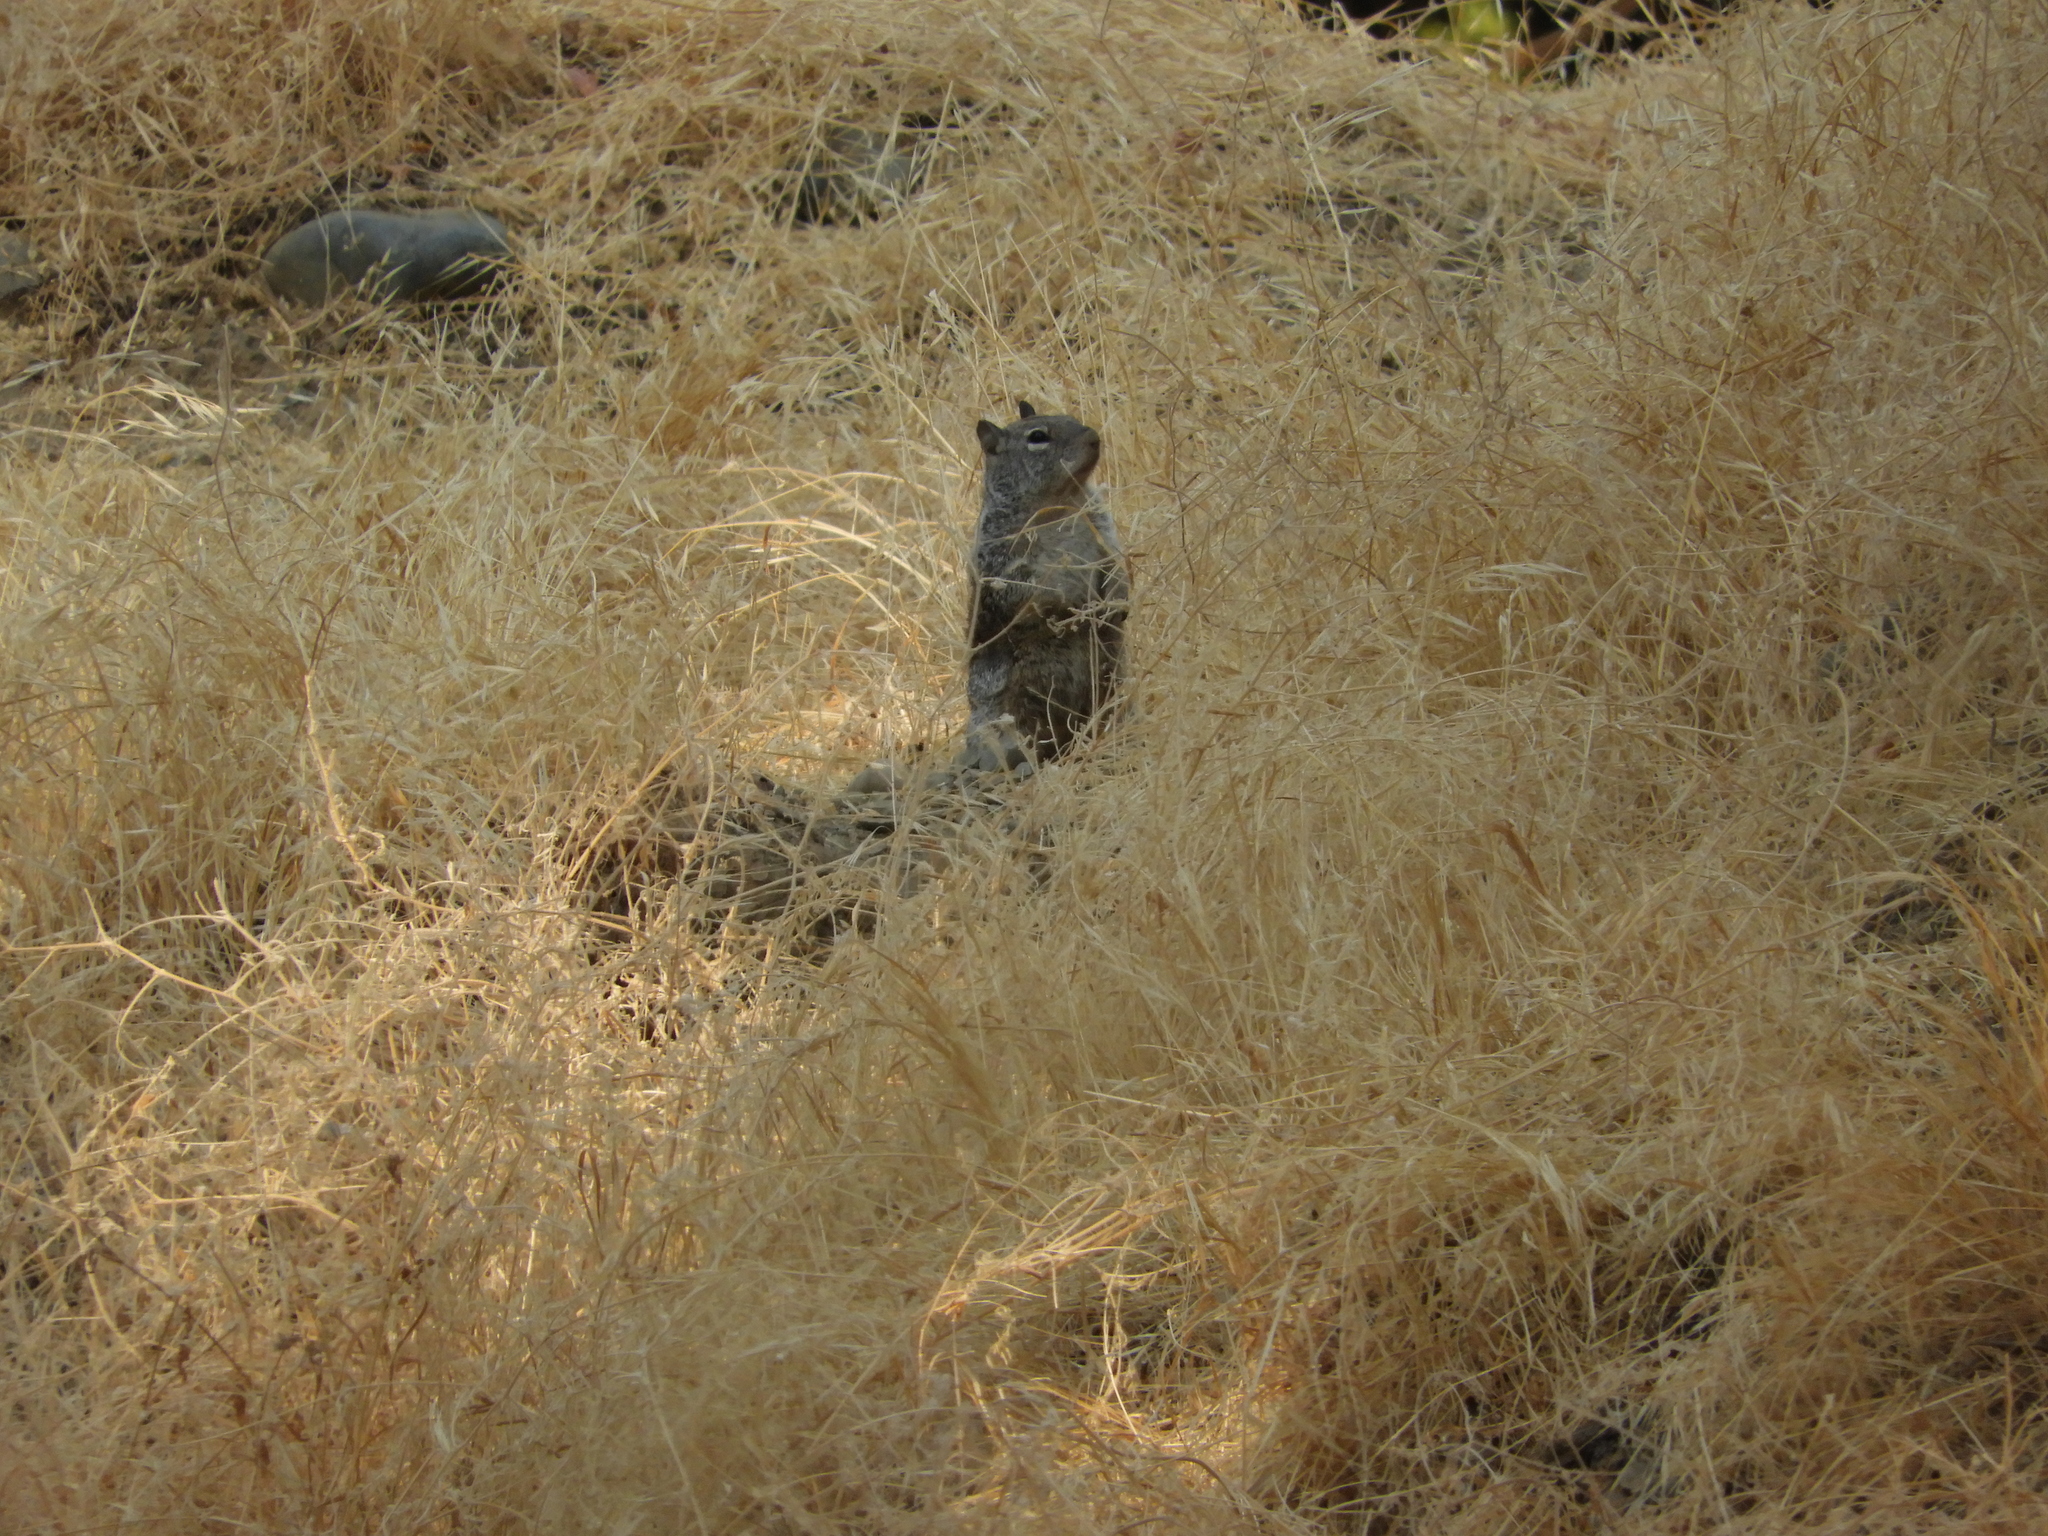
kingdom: Animalia
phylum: Chordata
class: Mammalia
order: Rodentia
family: Sciuridae
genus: Otospermophilus
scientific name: Otospermophilus beecheyi
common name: California ground squirrel
